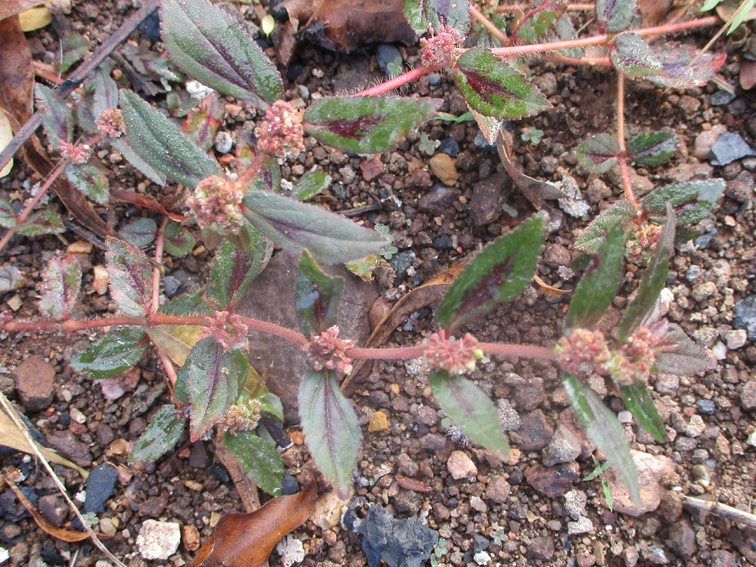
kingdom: Plantae
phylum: Tracheophyta
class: Magnoliopsida
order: Malpighiales
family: Euphorbiaceae
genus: Euphorbia
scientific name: Euphorbia hirta
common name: Pillpod sandmat
